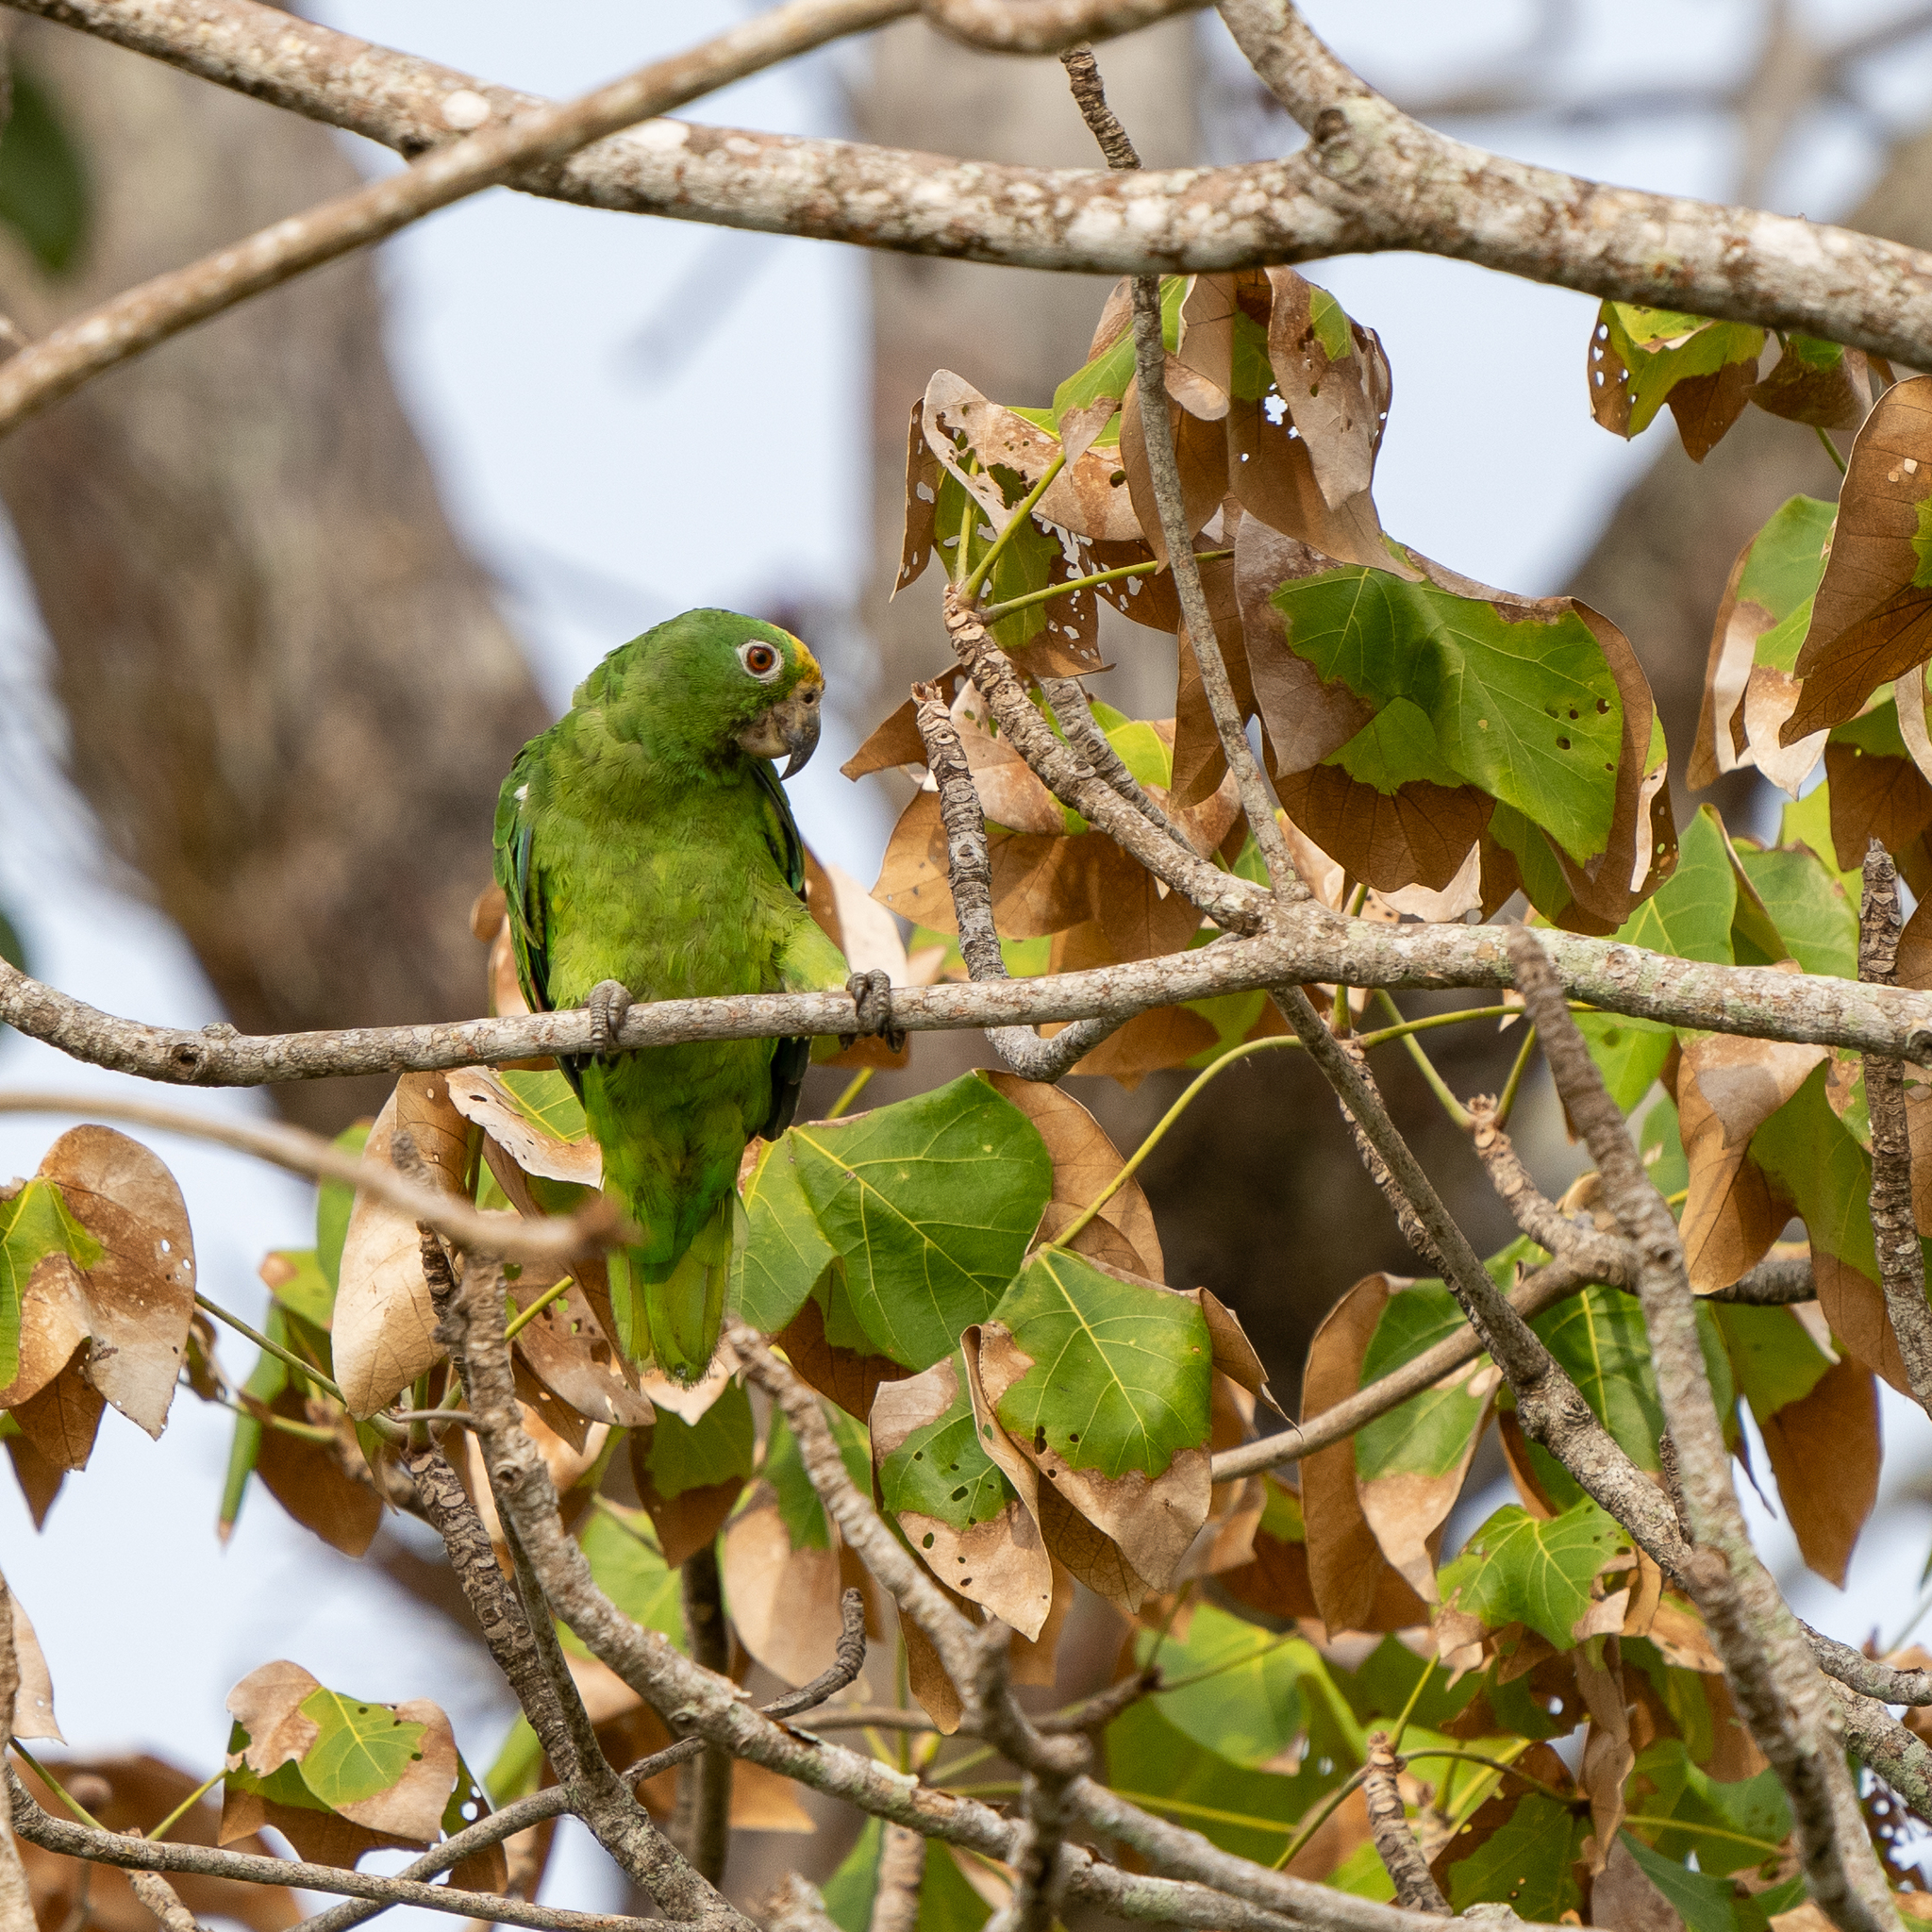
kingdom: Animalia
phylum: Chordata
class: Aves
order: Psittaciformes
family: Psittacidae
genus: Amazona
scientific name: Amazona ochrocephala
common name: Yellow-crowned amazon
